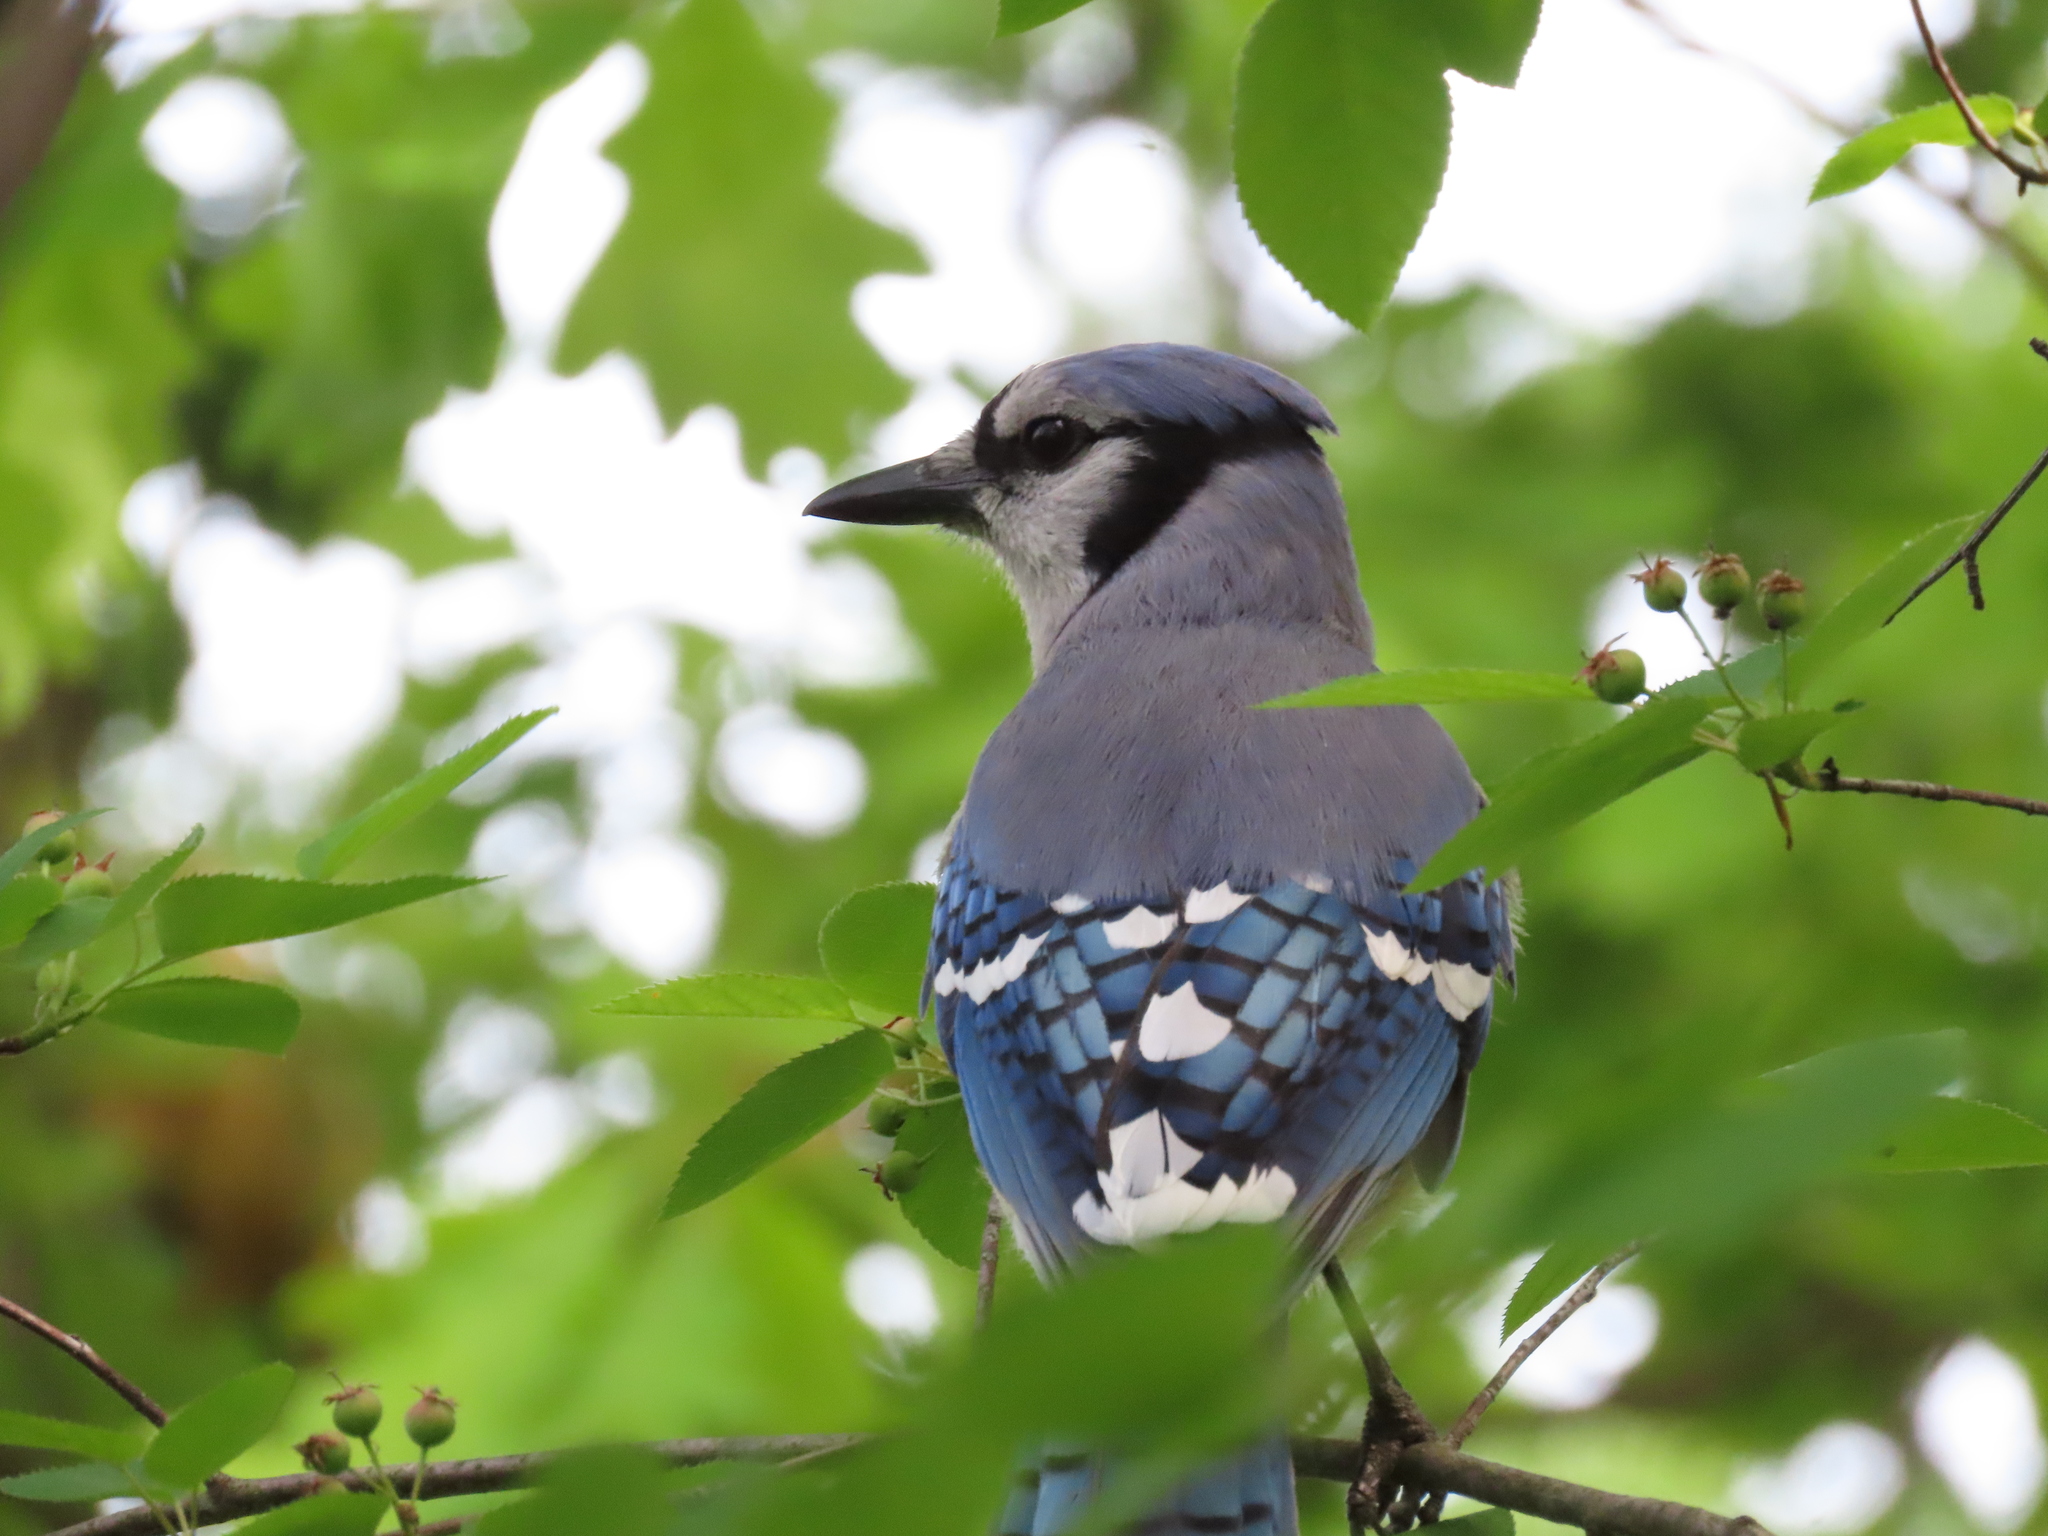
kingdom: Animalia
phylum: Chordata
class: Aves
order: Passeriformes
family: Corvidae
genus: Cyanocitta
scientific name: Cyanocitta cristata
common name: Blue jay
